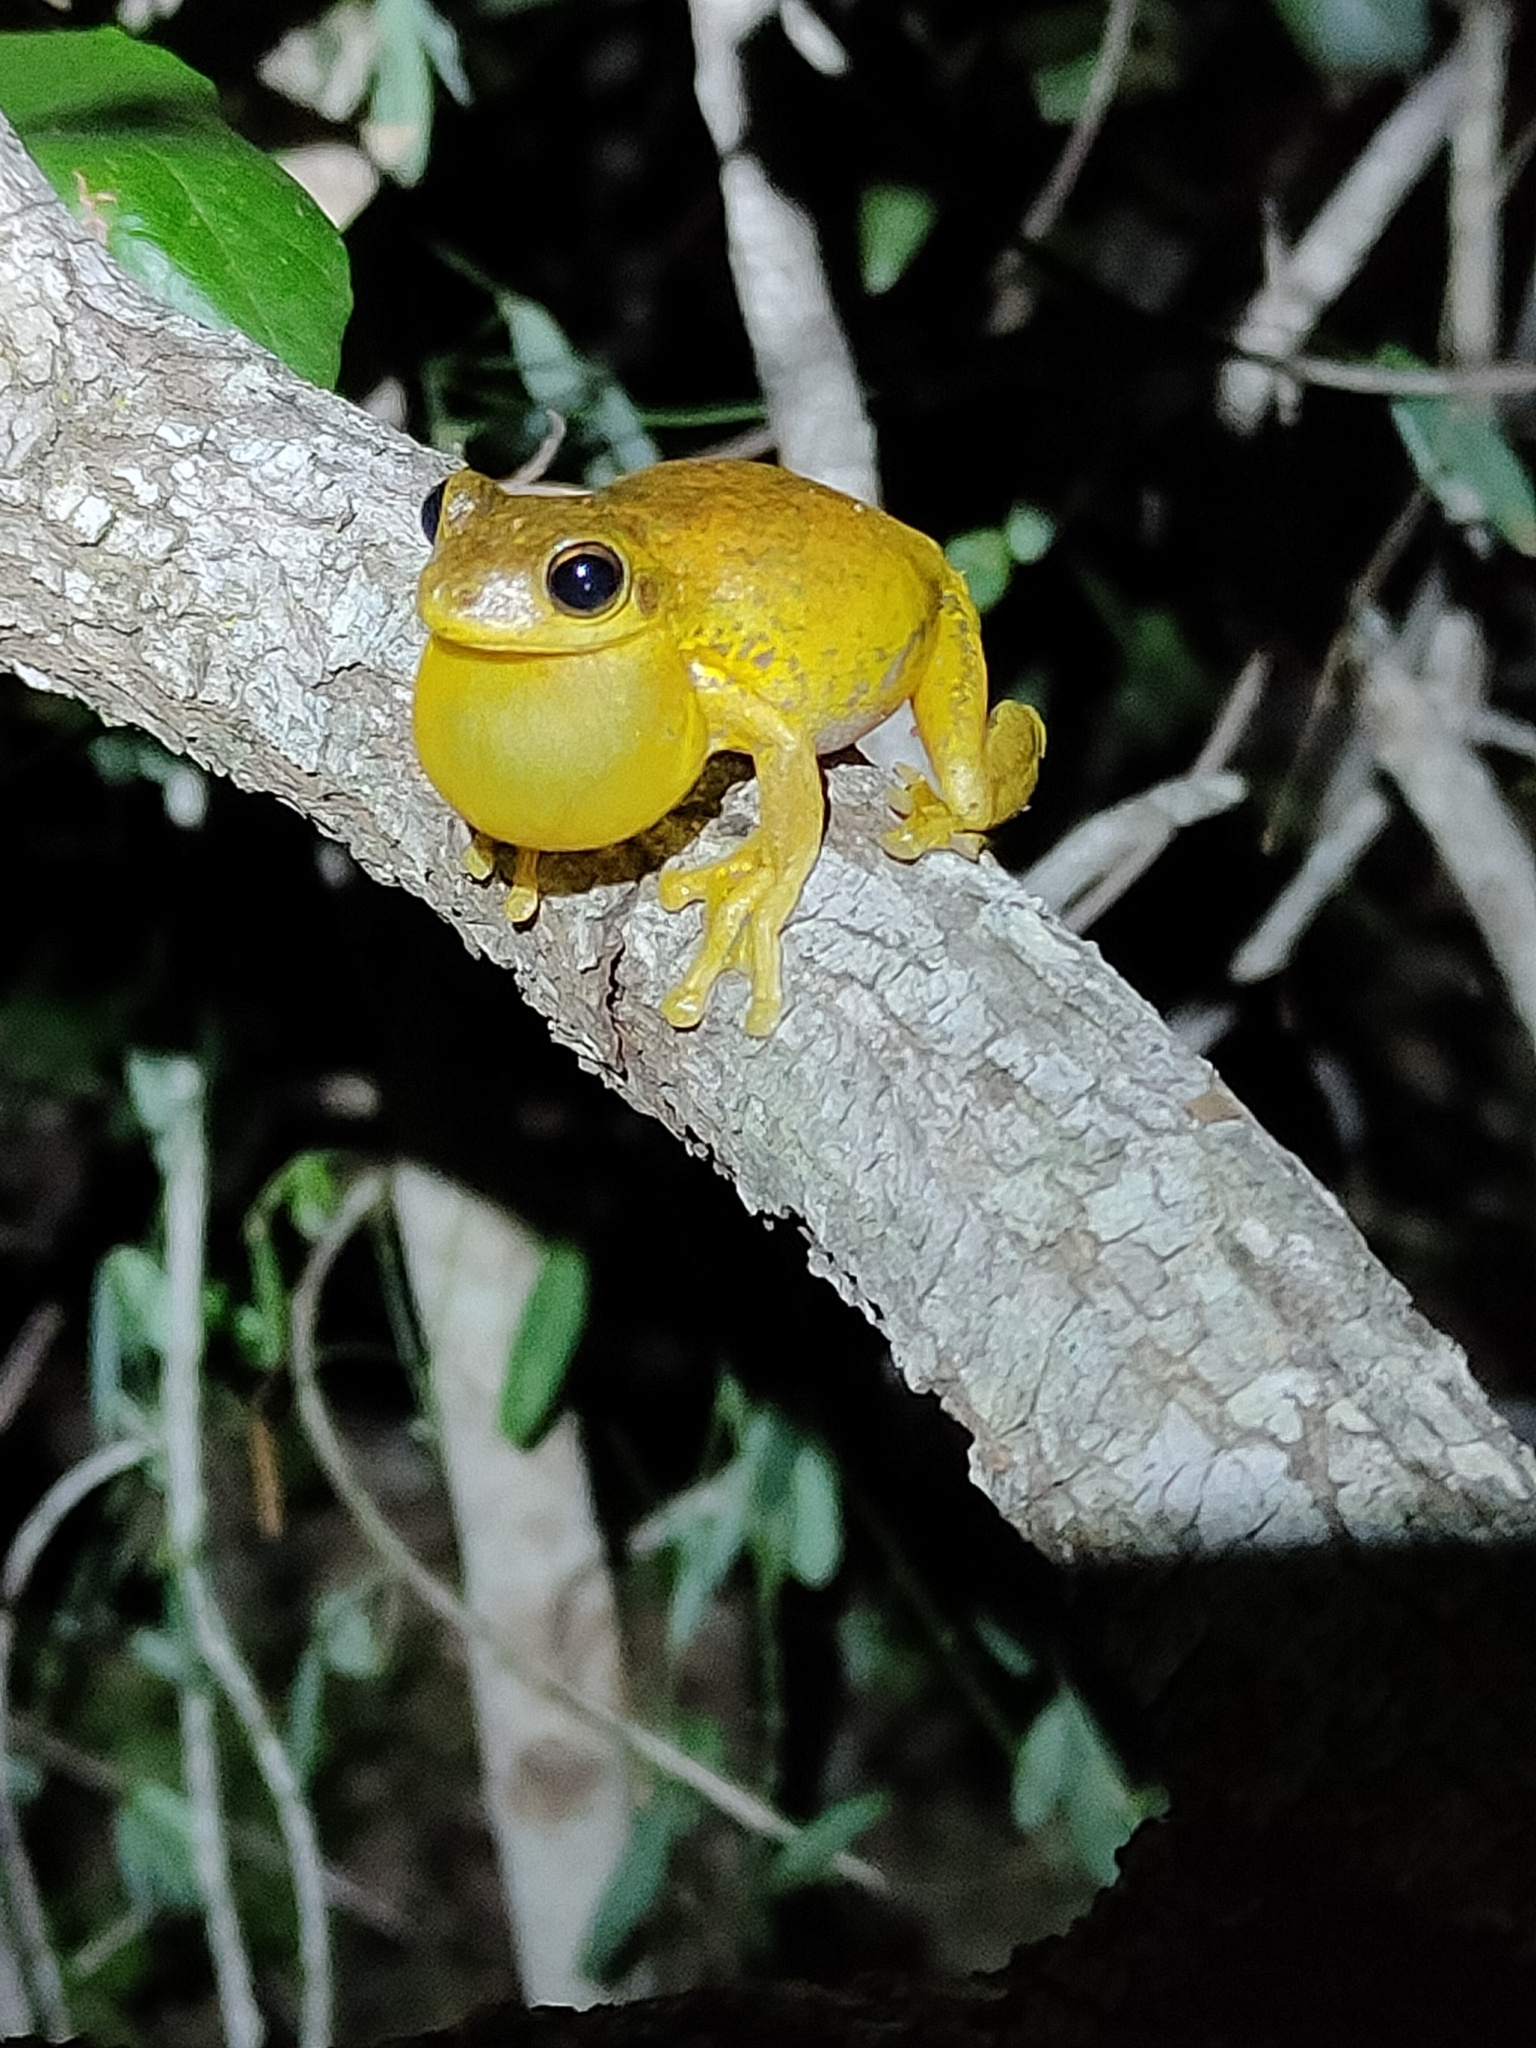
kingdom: Animalia
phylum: Chordata
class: Amphibia
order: Anura
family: Pelodryadidae
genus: Litoria
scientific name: Litoria tyleri
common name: Laughing tree frog
